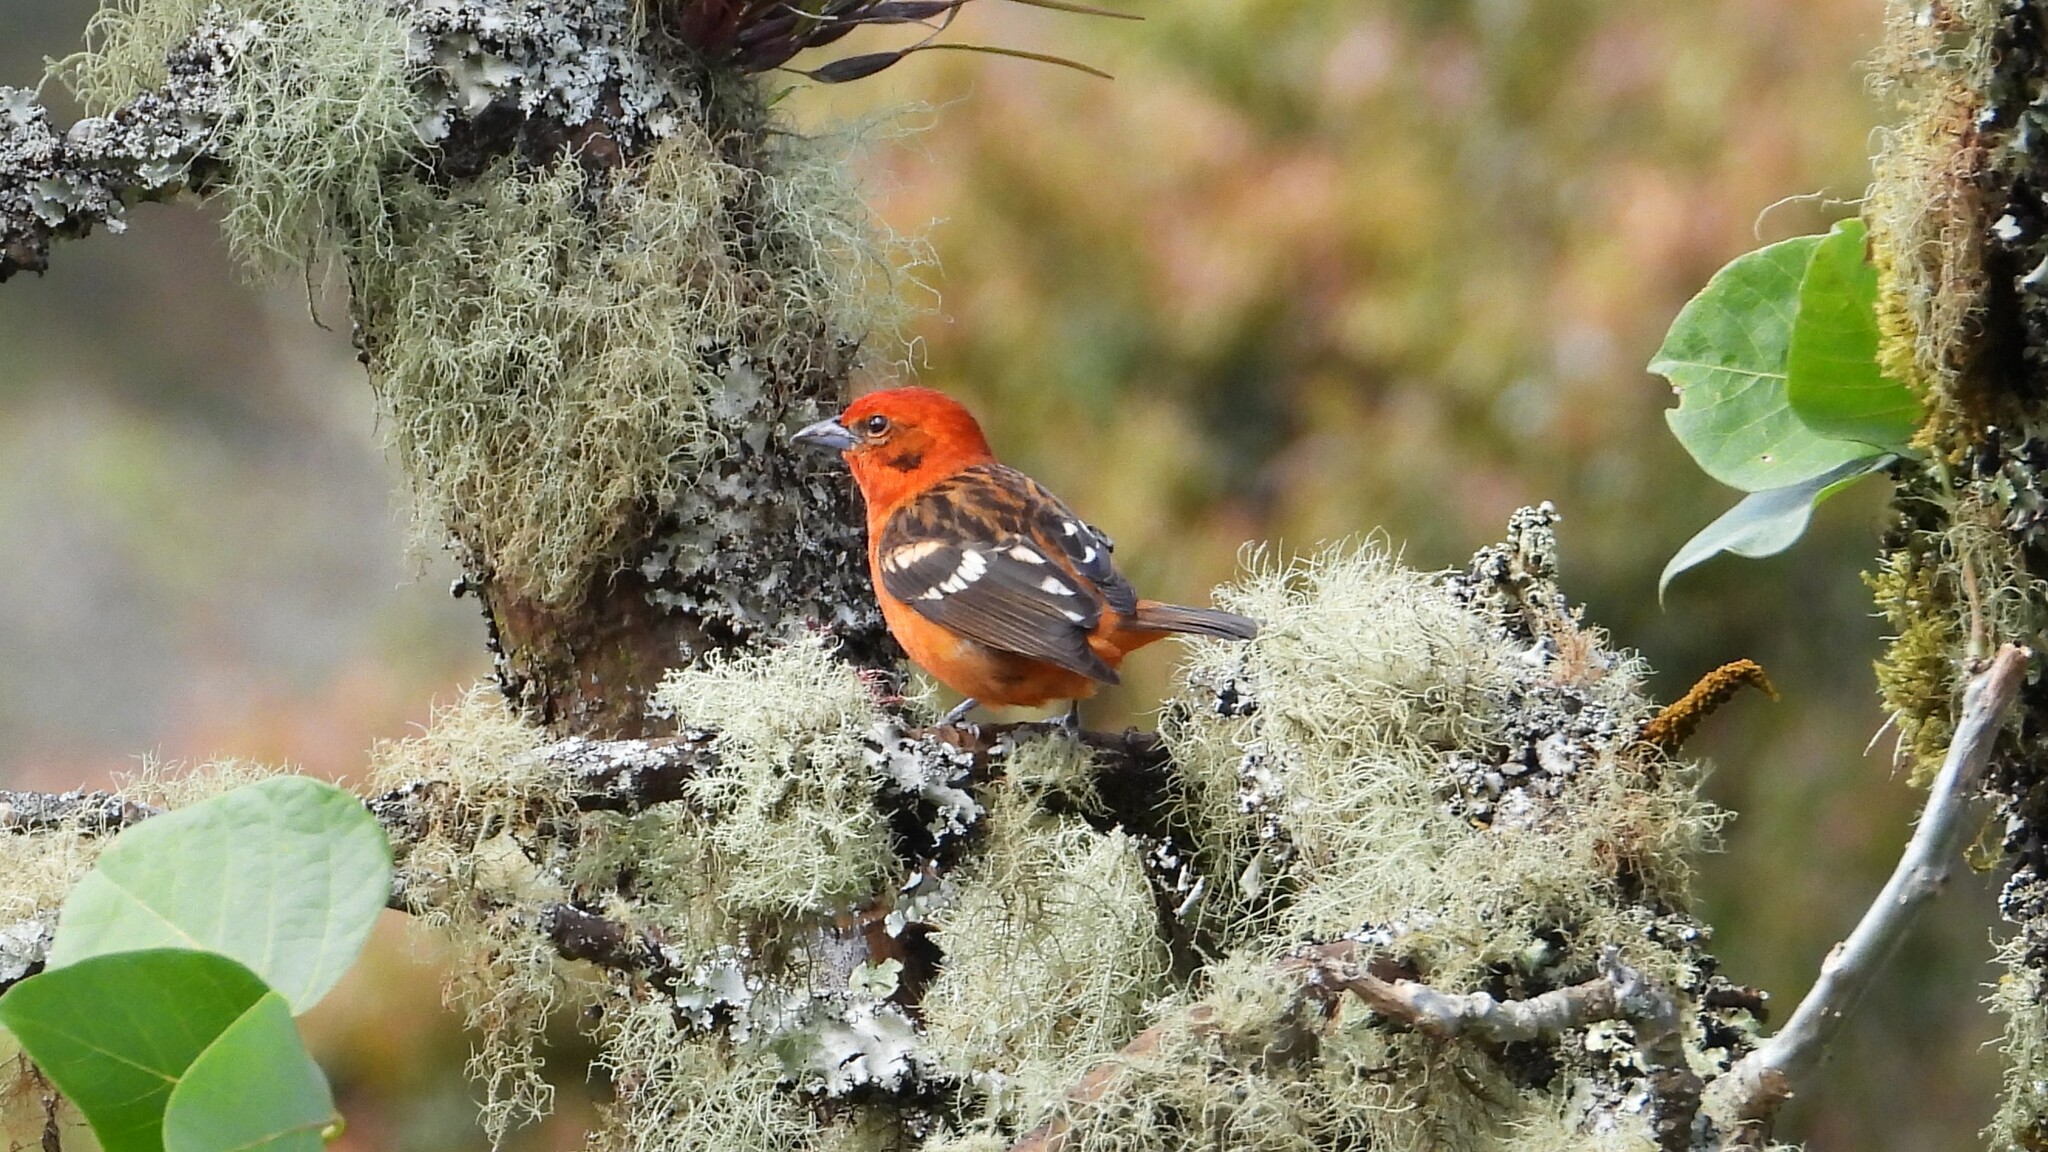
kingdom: Animalia
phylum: Chordata
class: Aves
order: Passeriformes
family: Cardinalidae
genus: Piranga
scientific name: Piranga bidentata
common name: Flame-colored tanager
